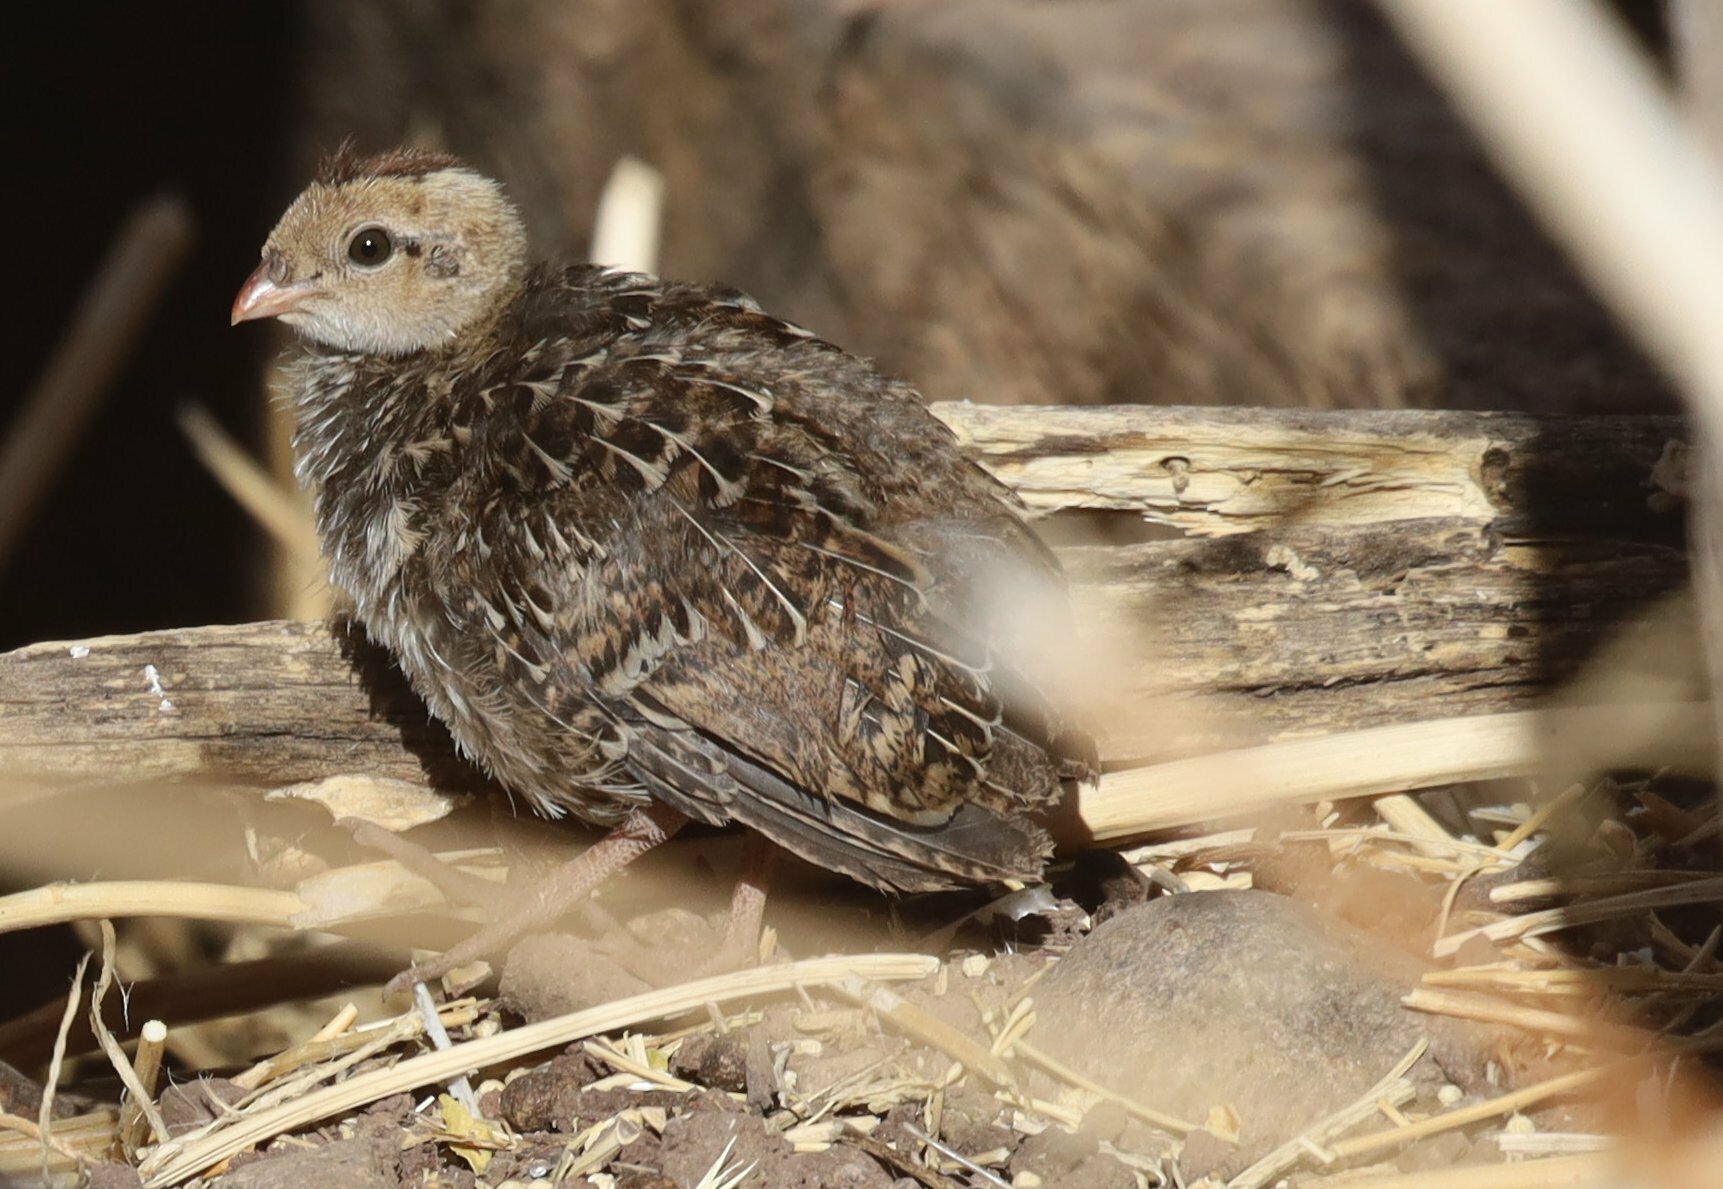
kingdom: Animalia
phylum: Chordata
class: Aves
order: Galliformes
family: Odontophoridae
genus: Callipepla
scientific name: Callipepla californica
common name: California quail
